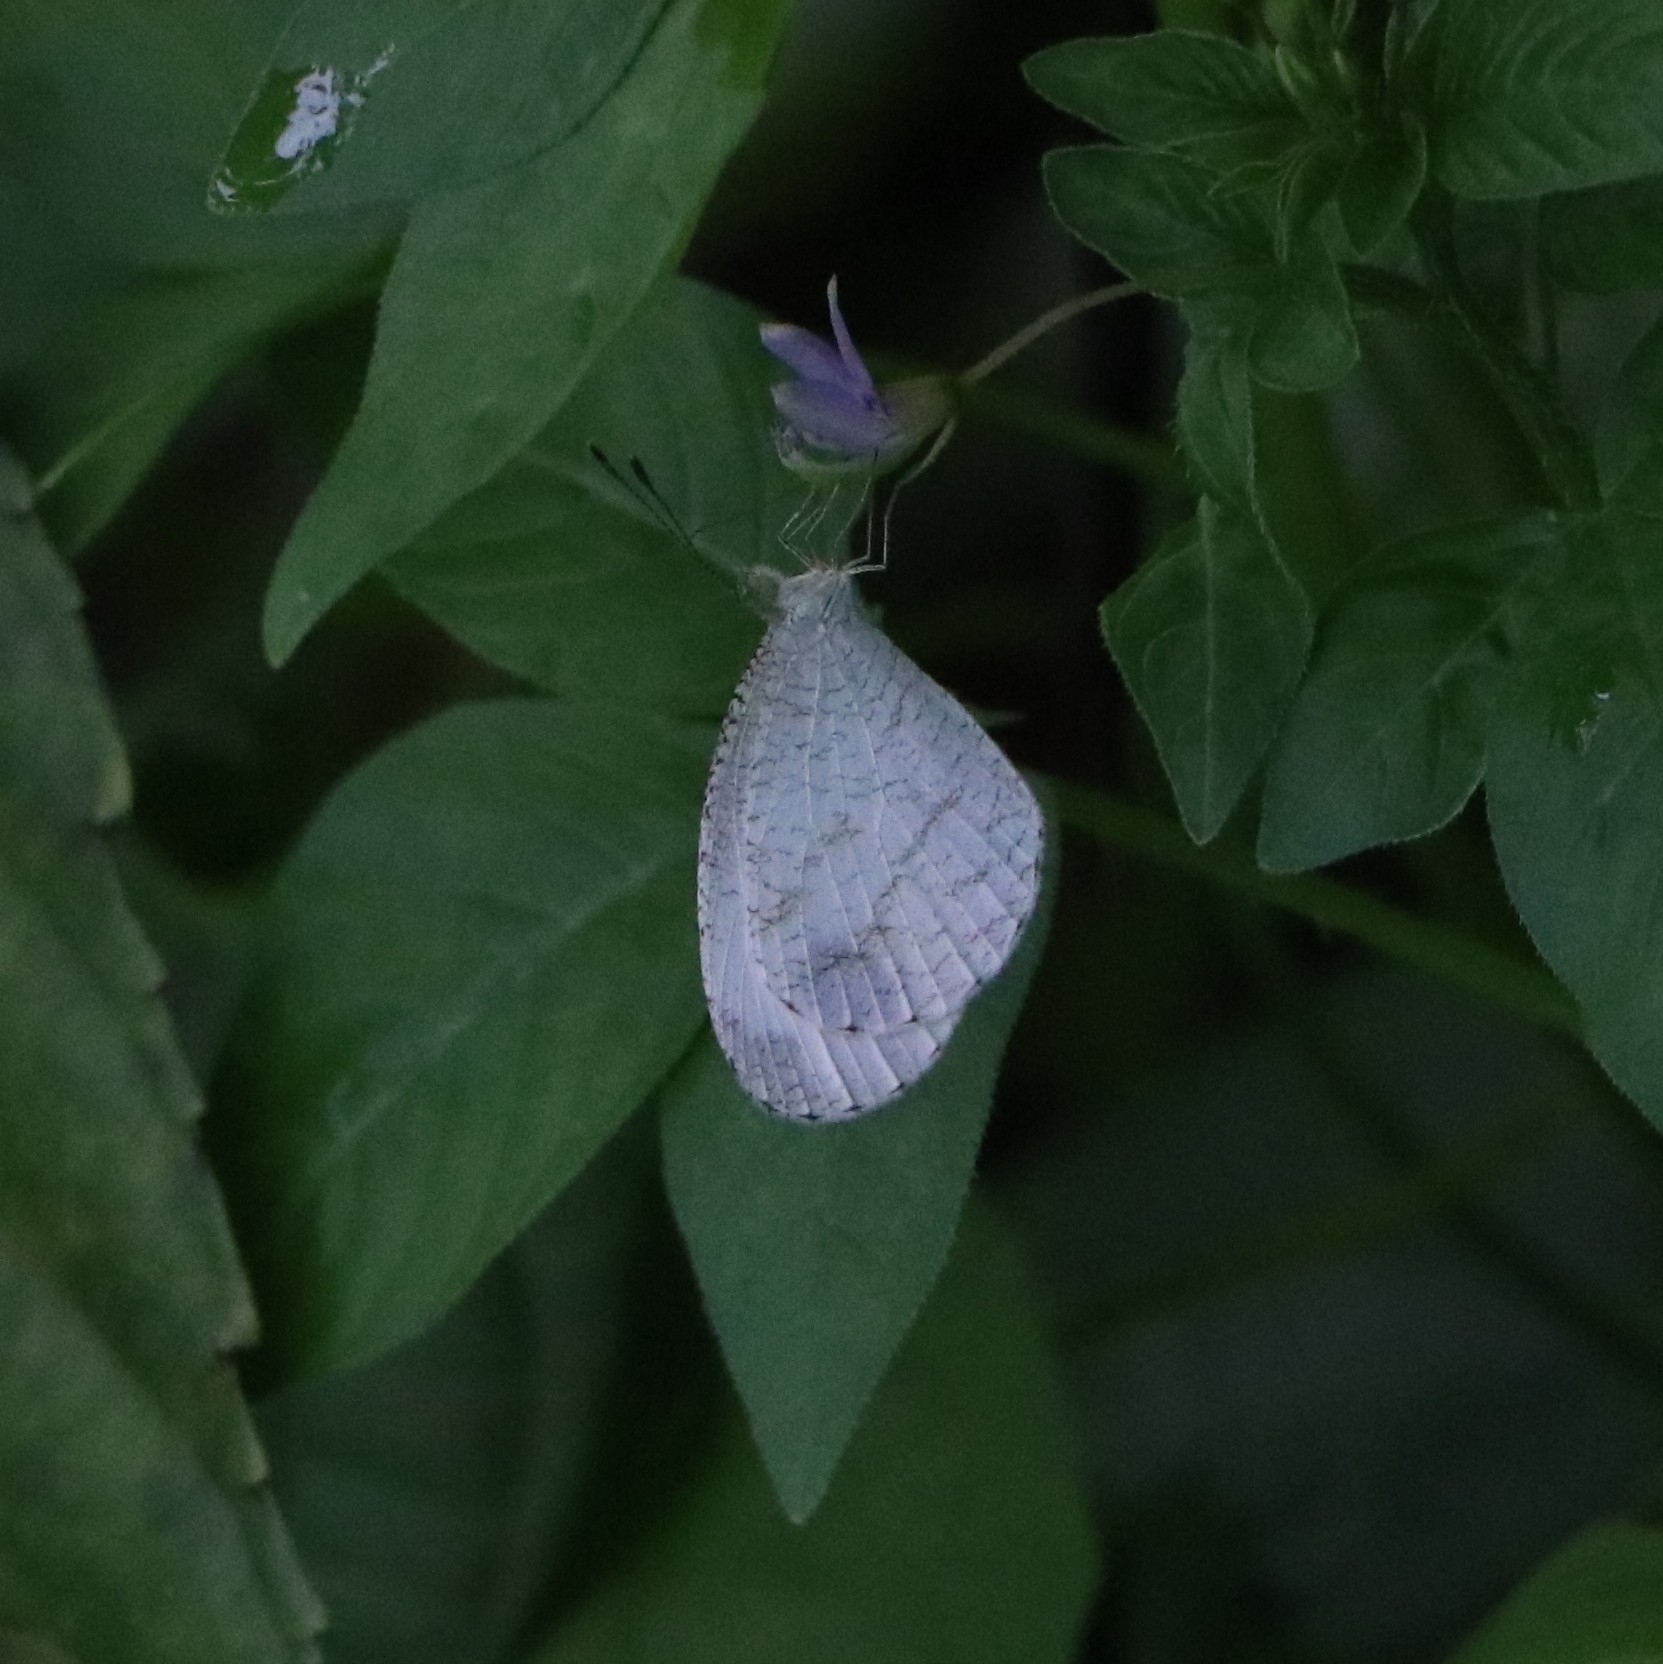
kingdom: Animalia
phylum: Arthropoda
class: Insecta
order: Lepidoptera
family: Pieridae
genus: Leptosia
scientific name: Leptosia nina
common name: Psyche
